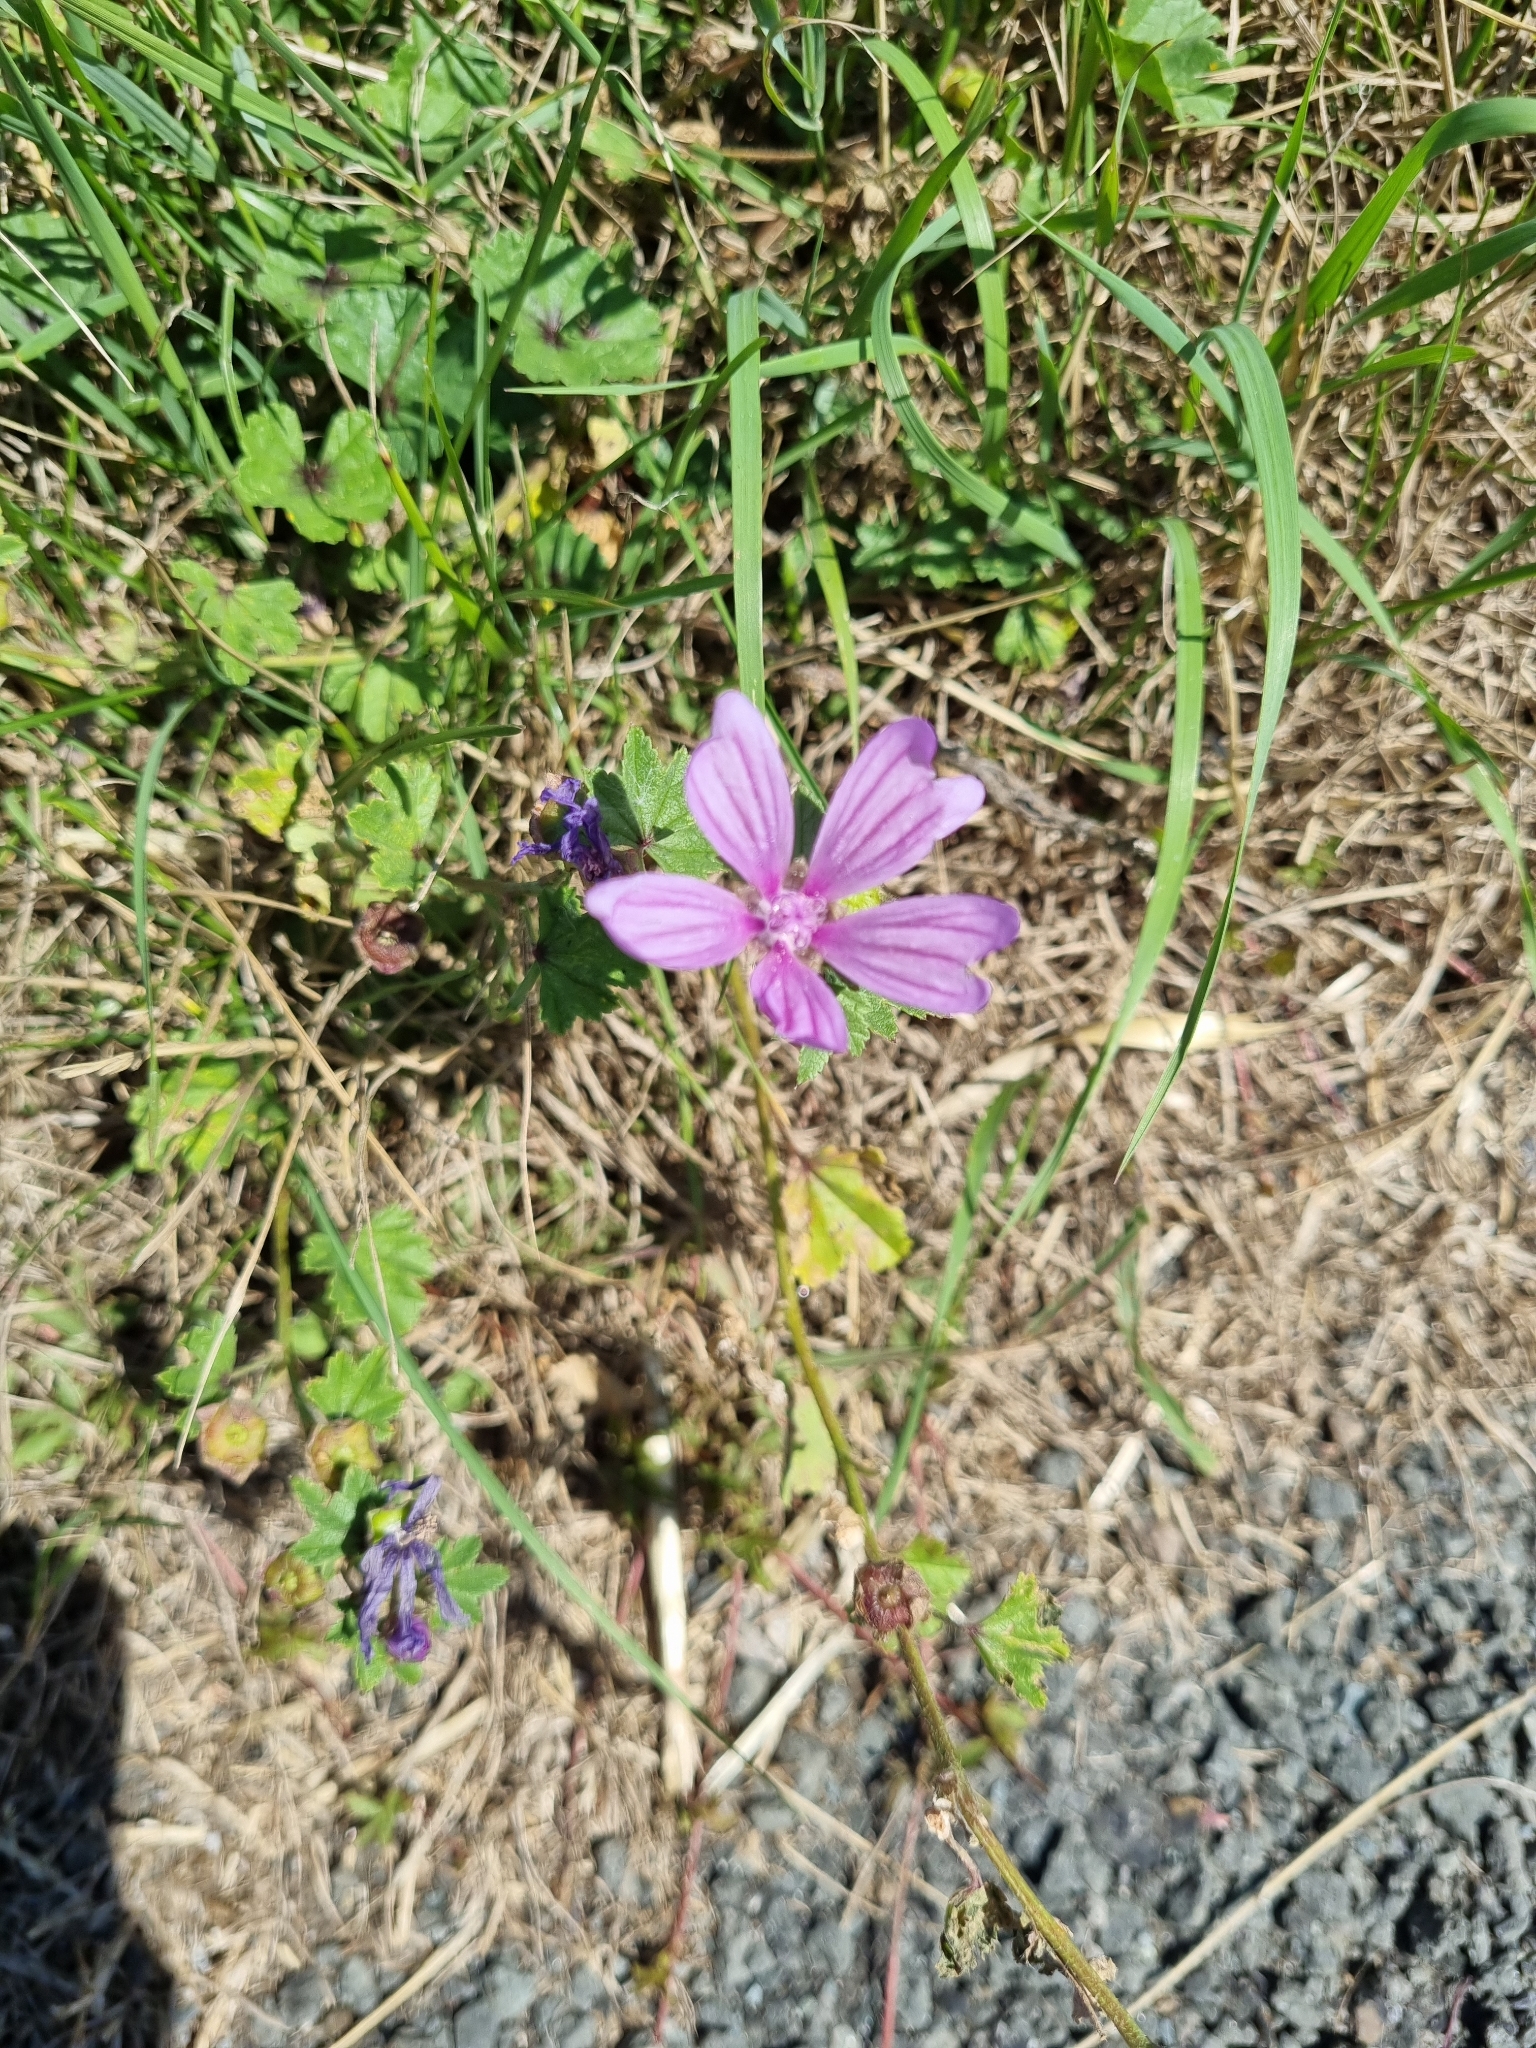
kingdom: Plantae
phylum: Tracheophyta
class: Magnoliopsida
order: Malvales
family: Malvaceae
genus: Malva
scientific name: Malva sylvestris
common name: Common mallow
